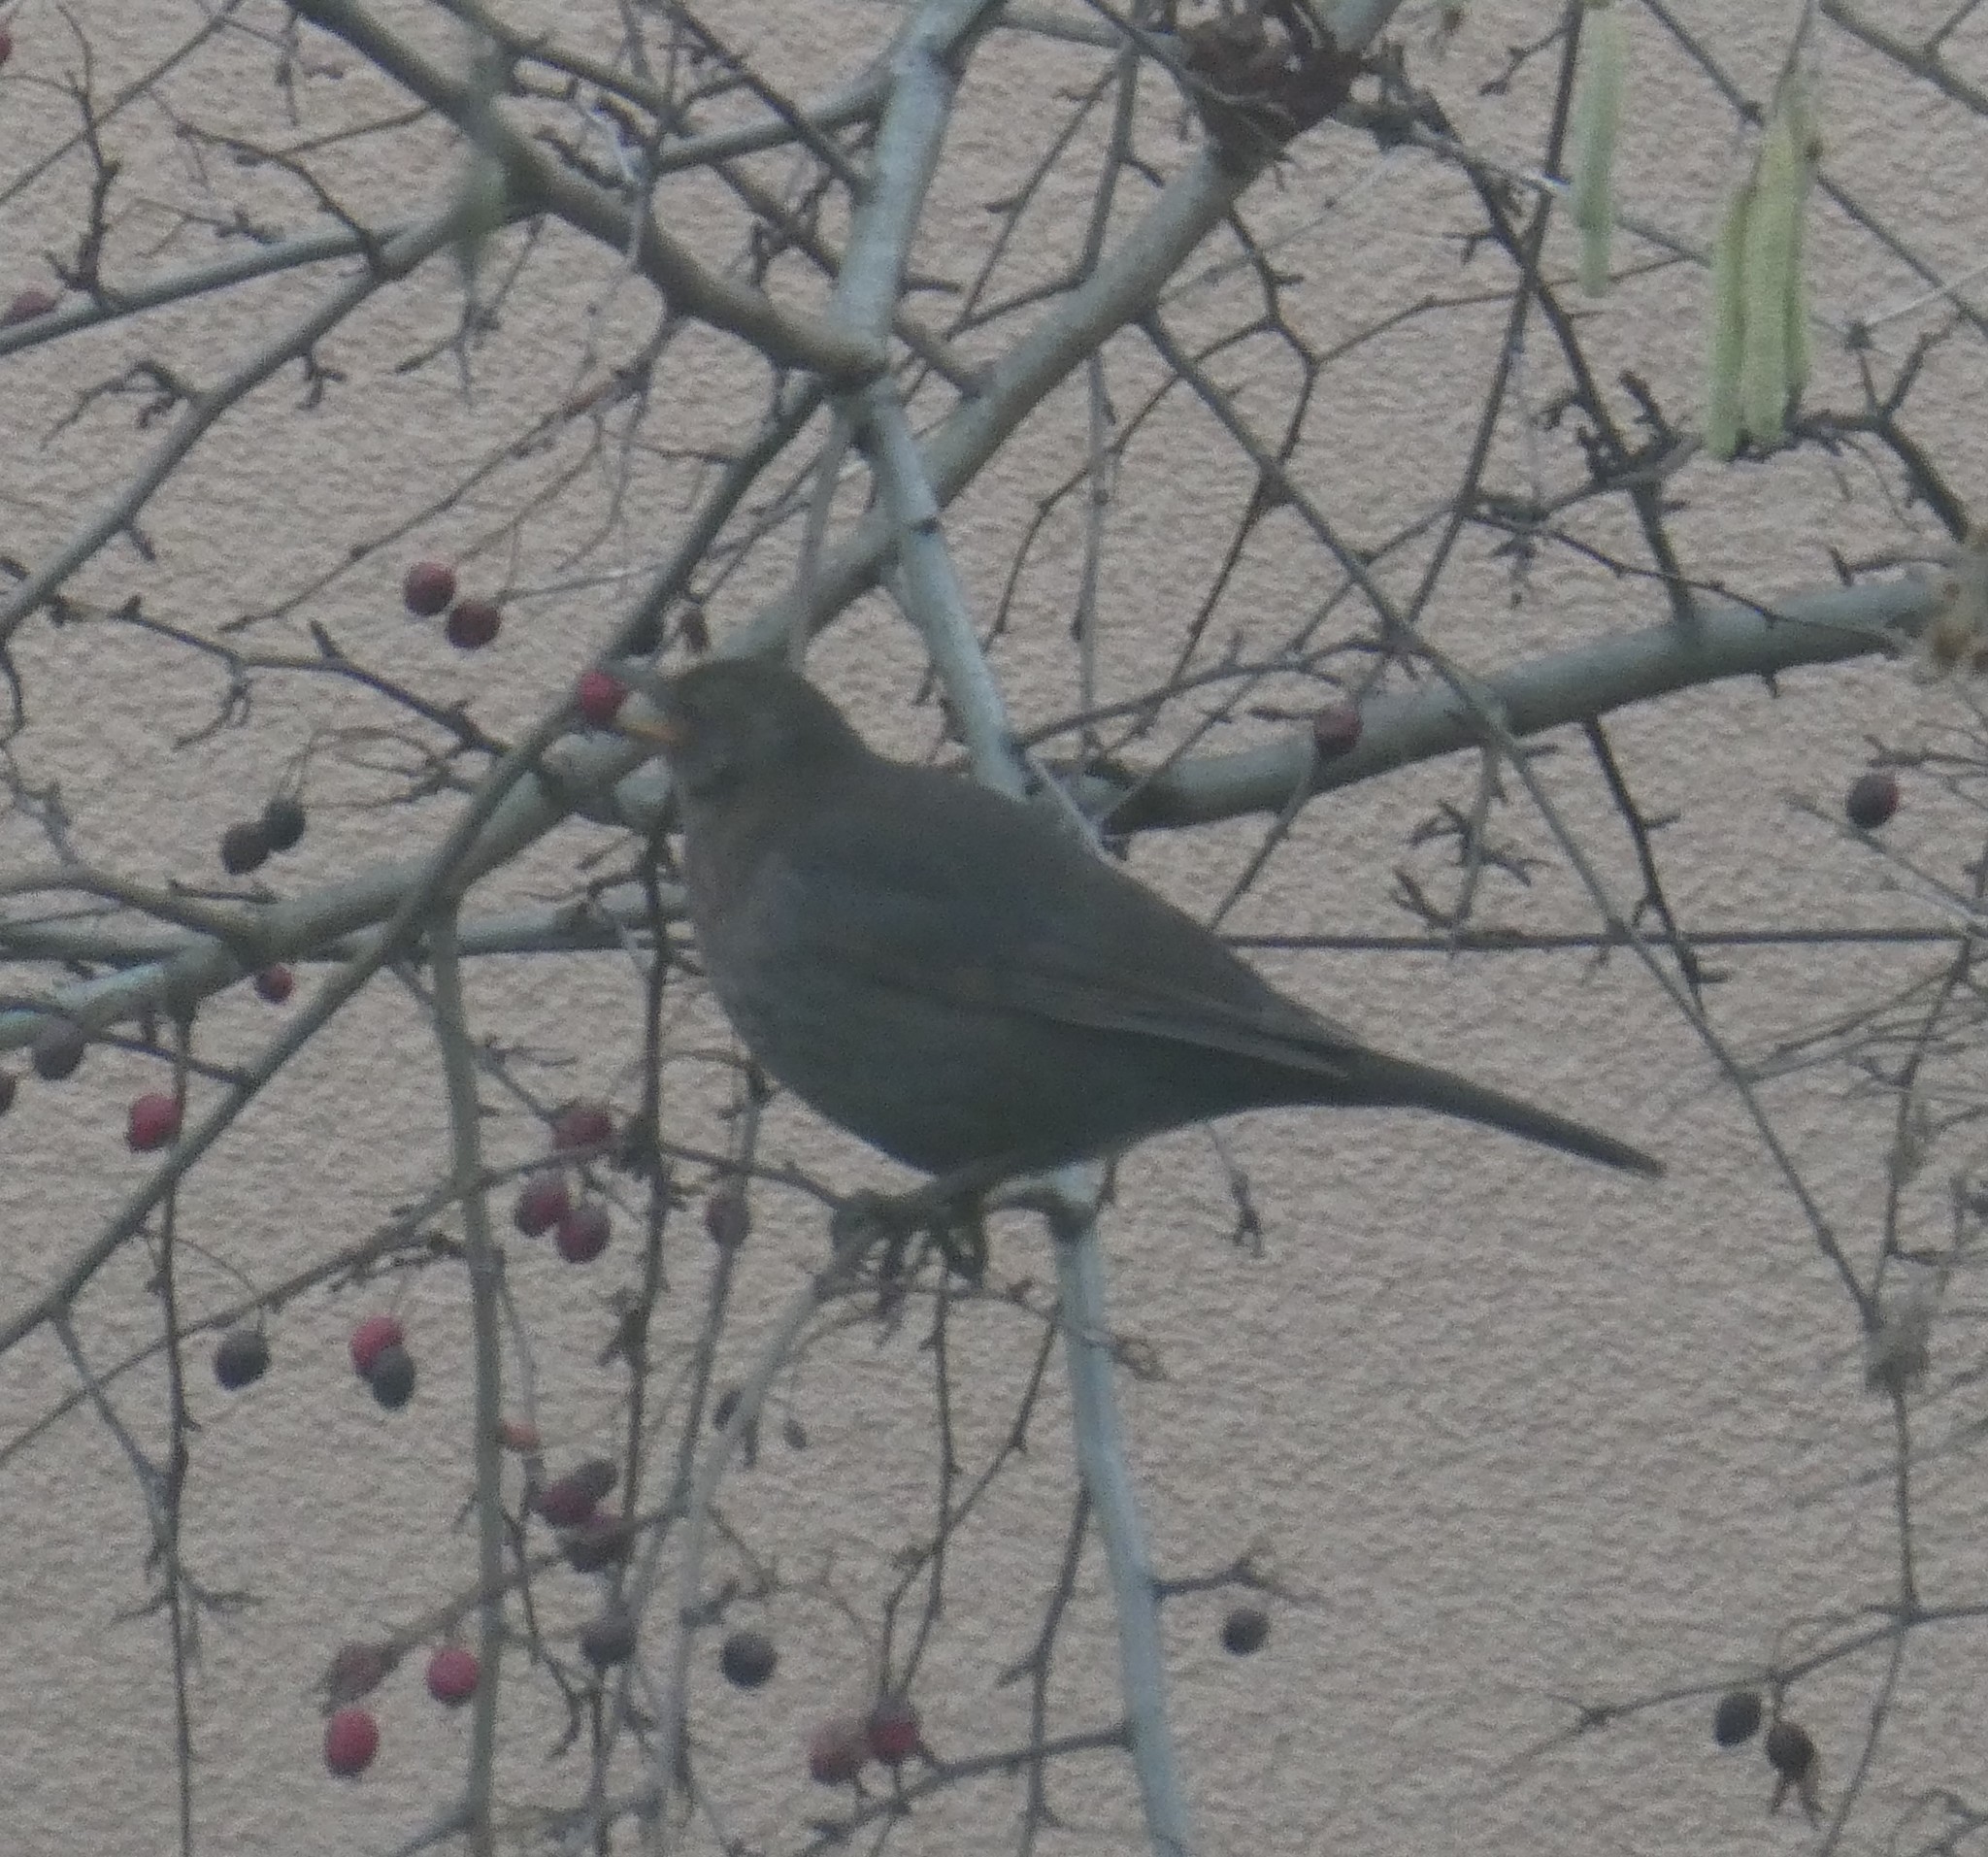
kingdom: Animalia
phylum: Chordata
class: Aves
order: Passeriformes
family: Turdidae
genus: Turdus
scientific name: Turdus merula
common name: Common blackbird
